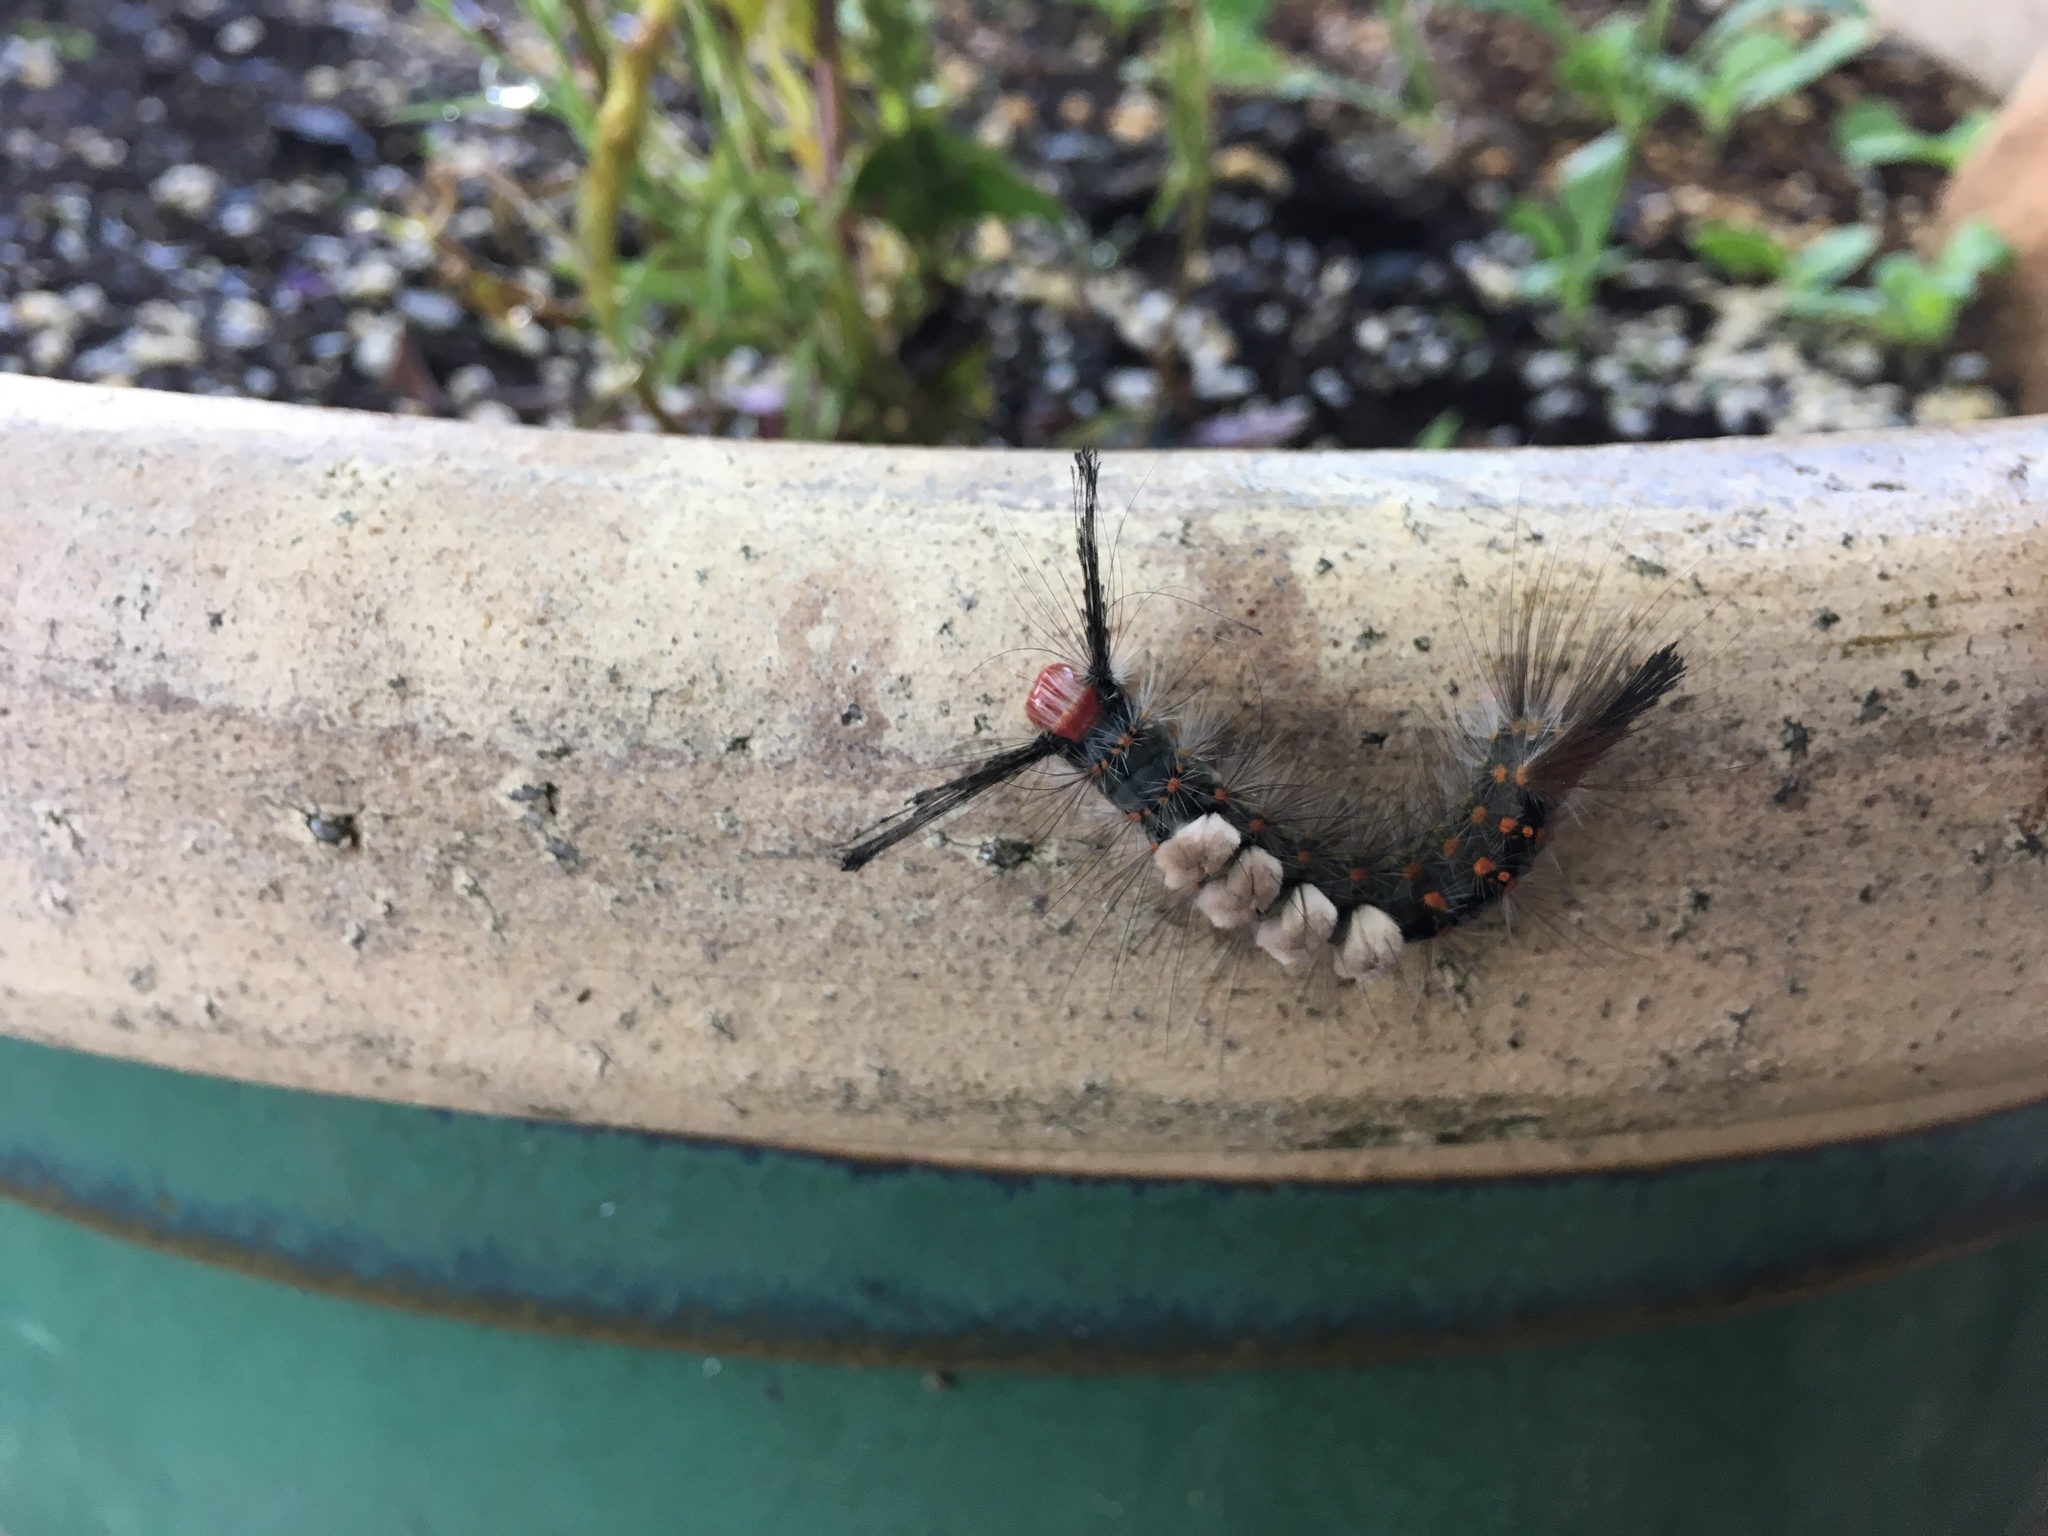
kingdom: Animalia
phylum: Arthropoda
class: Insecta
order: Lepidoptera
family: Erebidae
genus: Orgyia
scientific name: Orgyia detrita
